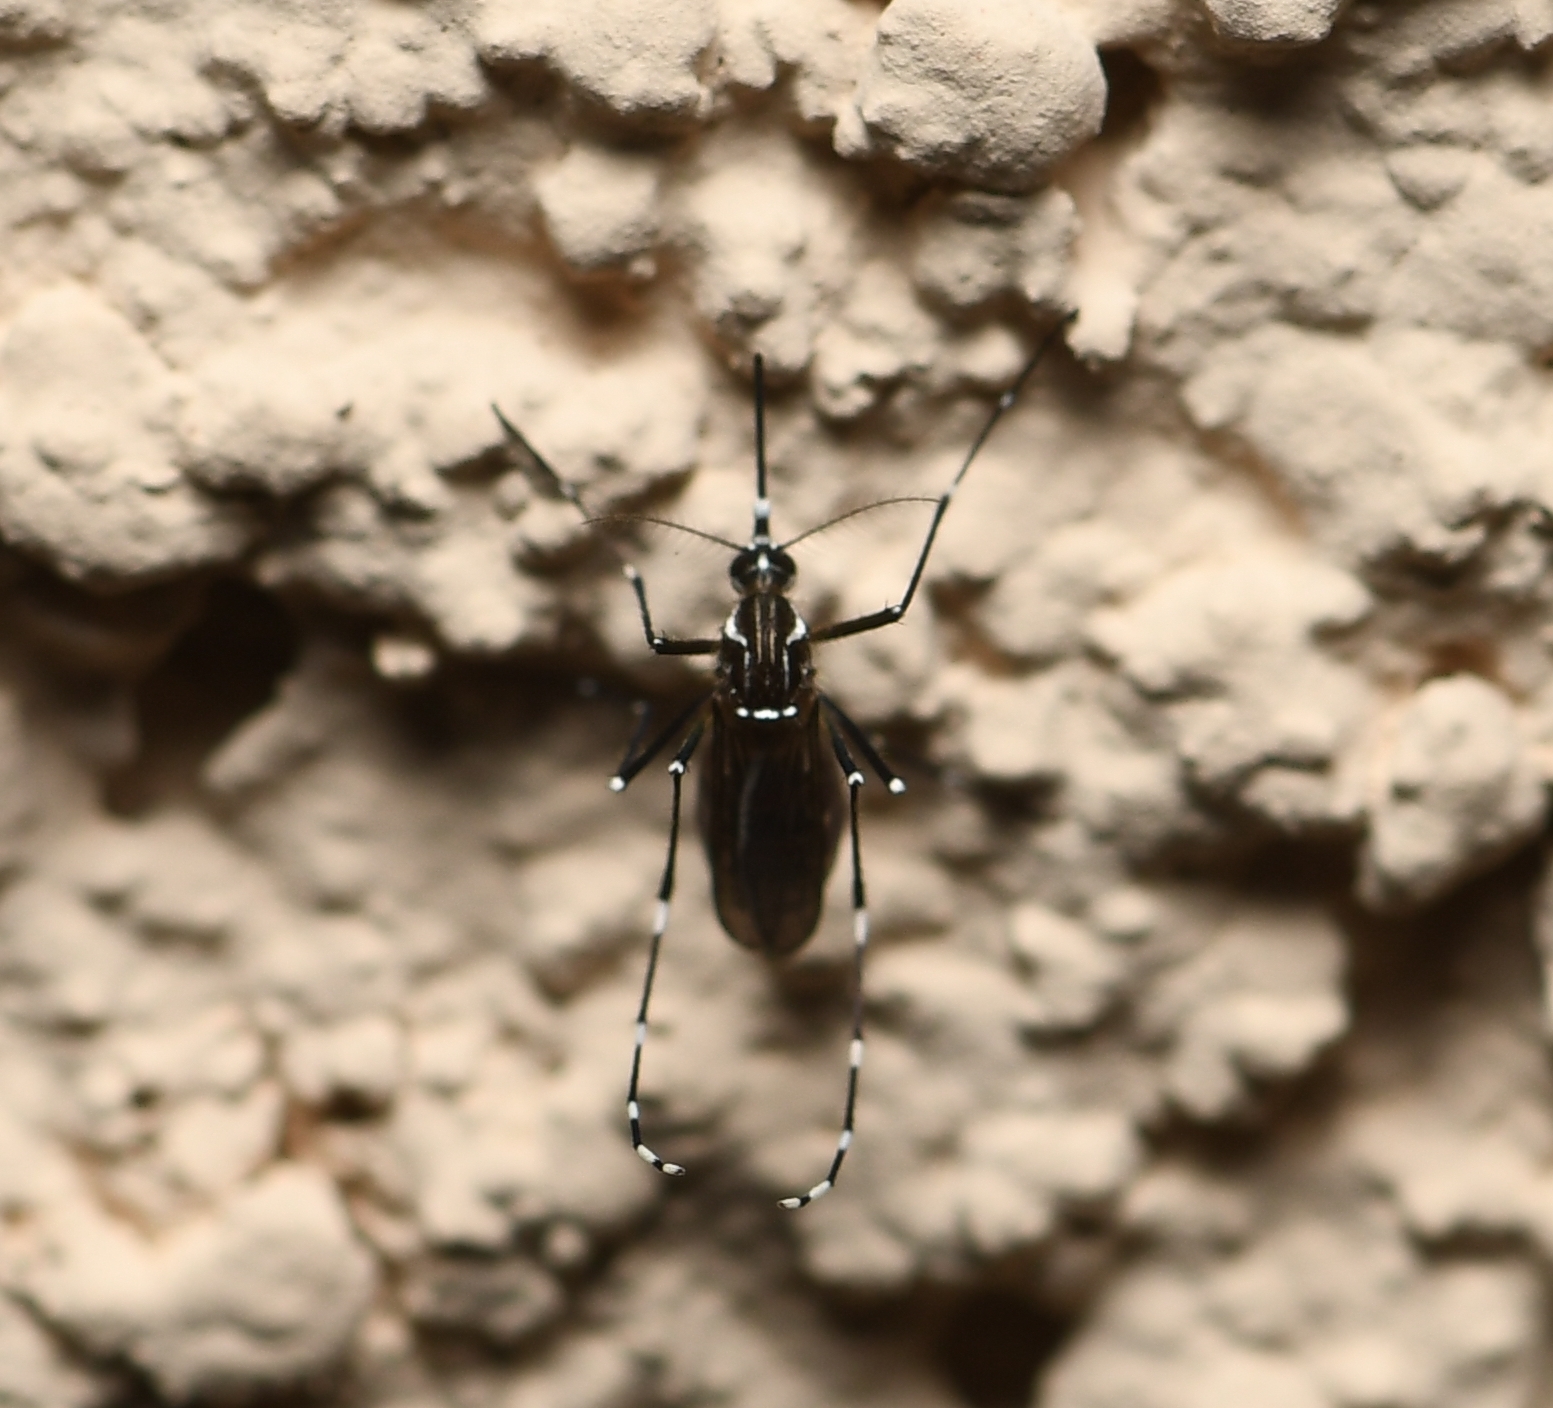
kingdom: Animalia
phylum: Arthropoda
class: Insecta
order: Diptera
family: Culicidae
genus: Aedes
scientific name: Aedes aegypti
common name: Yellow fever mosquito
